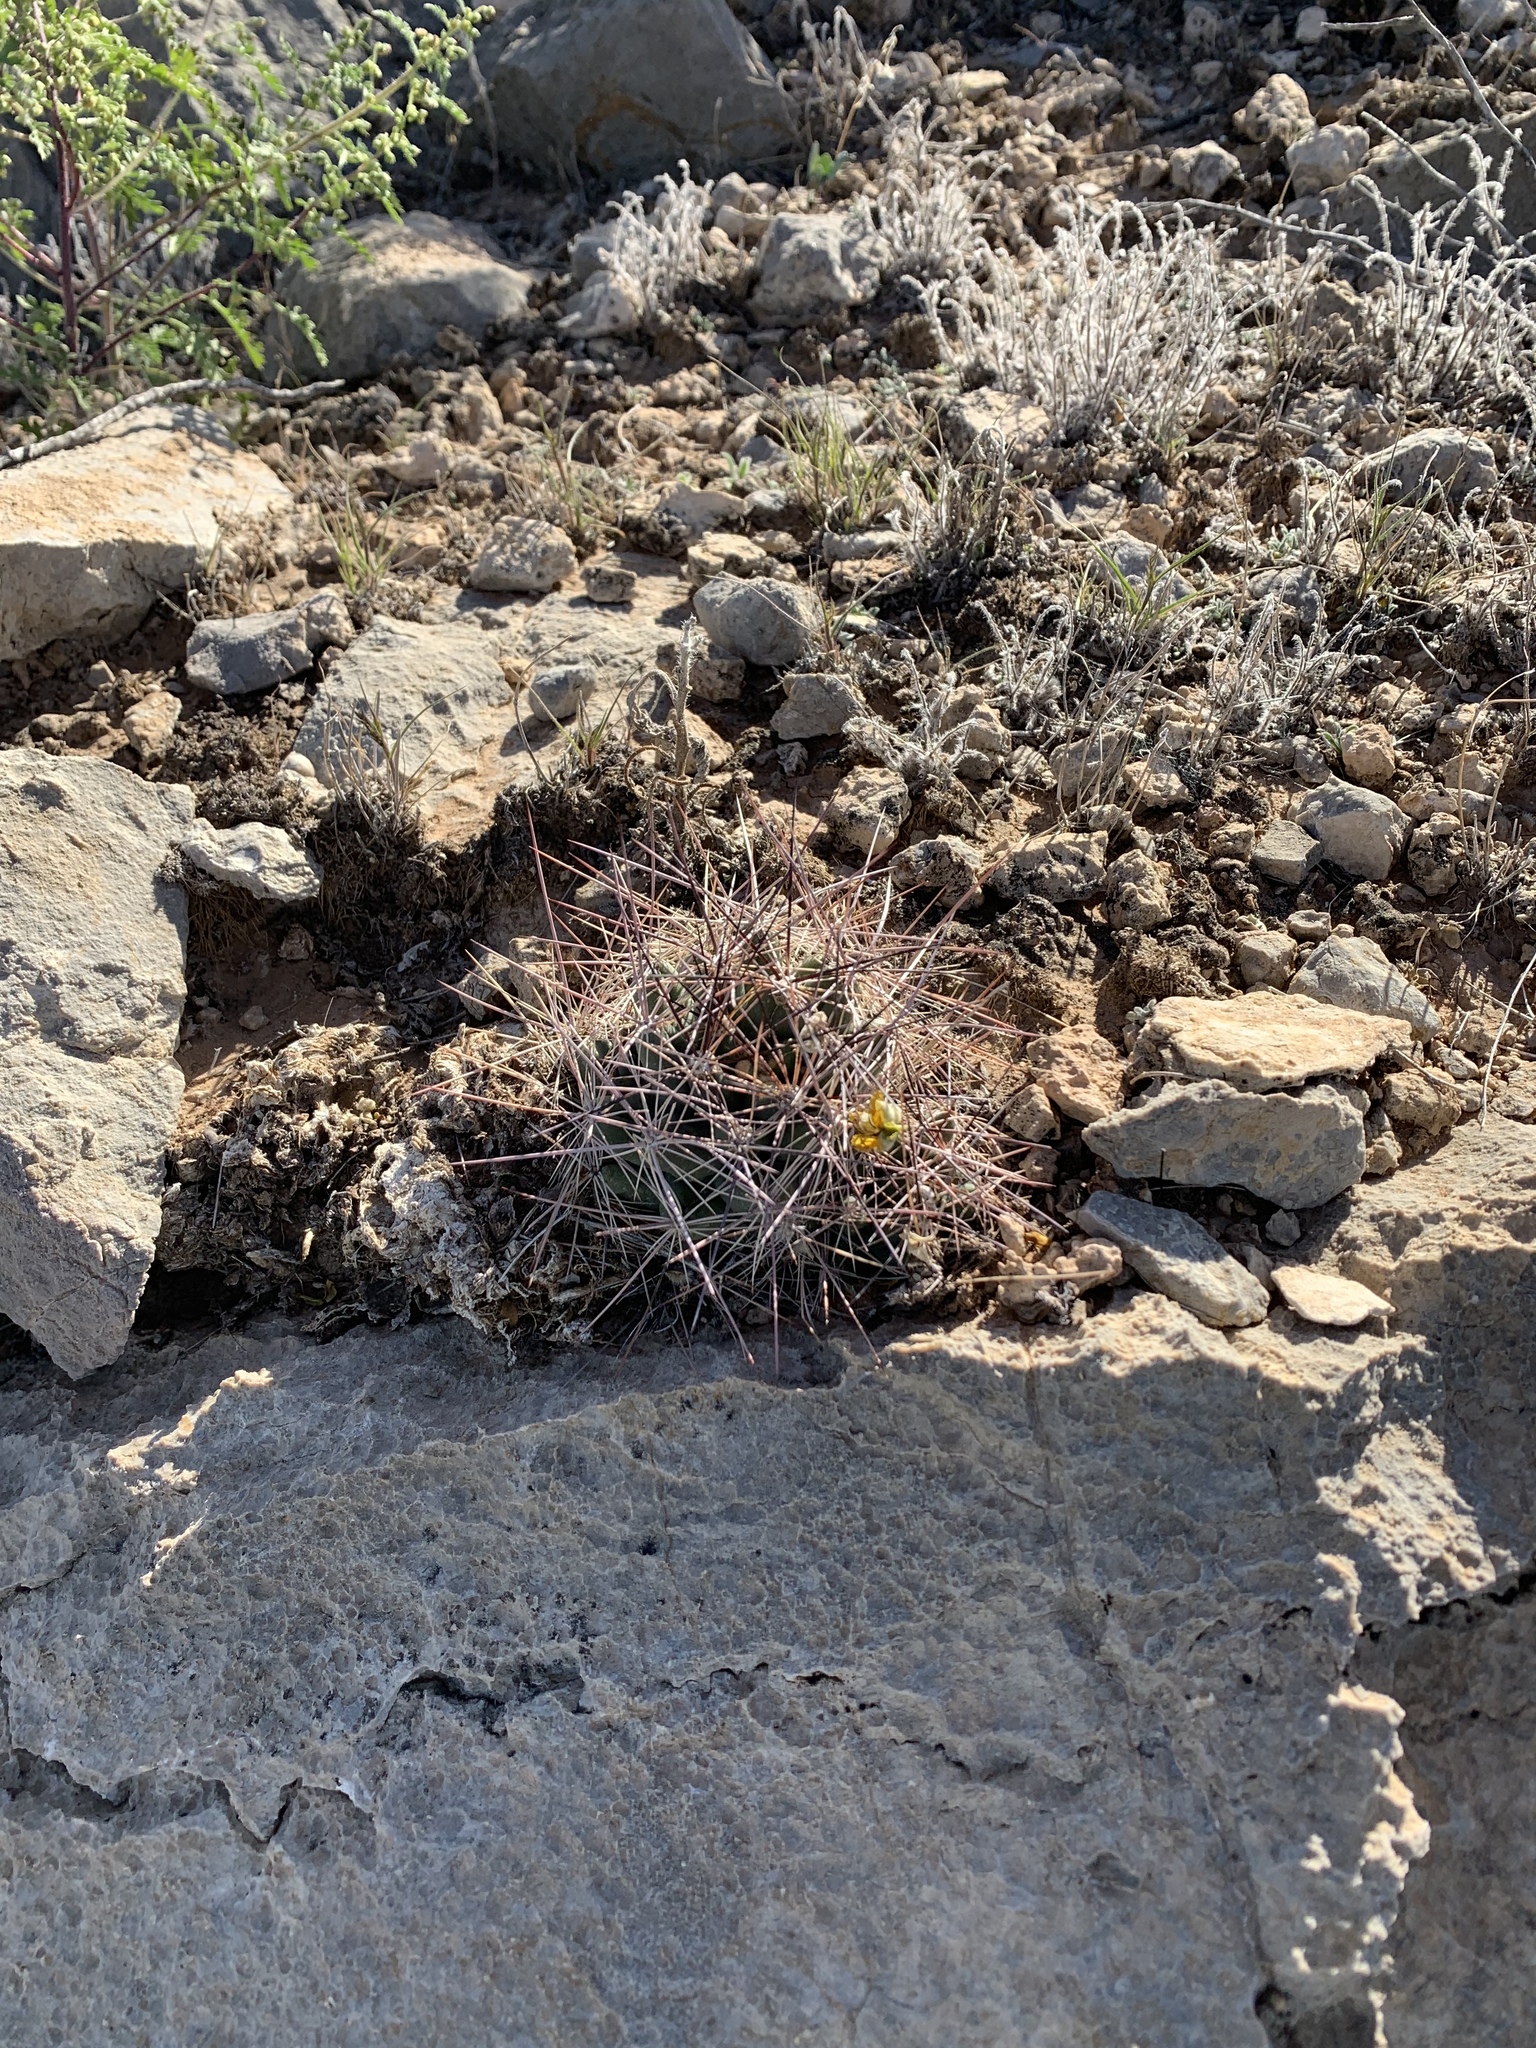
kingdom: Plantae
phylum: Tracheophyta
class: Magnoliopsida
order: Caryophyllales
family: Cactaceae
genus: Coryphantha
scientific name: Coryphantha macromeris
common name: Nipple beehive cactus
